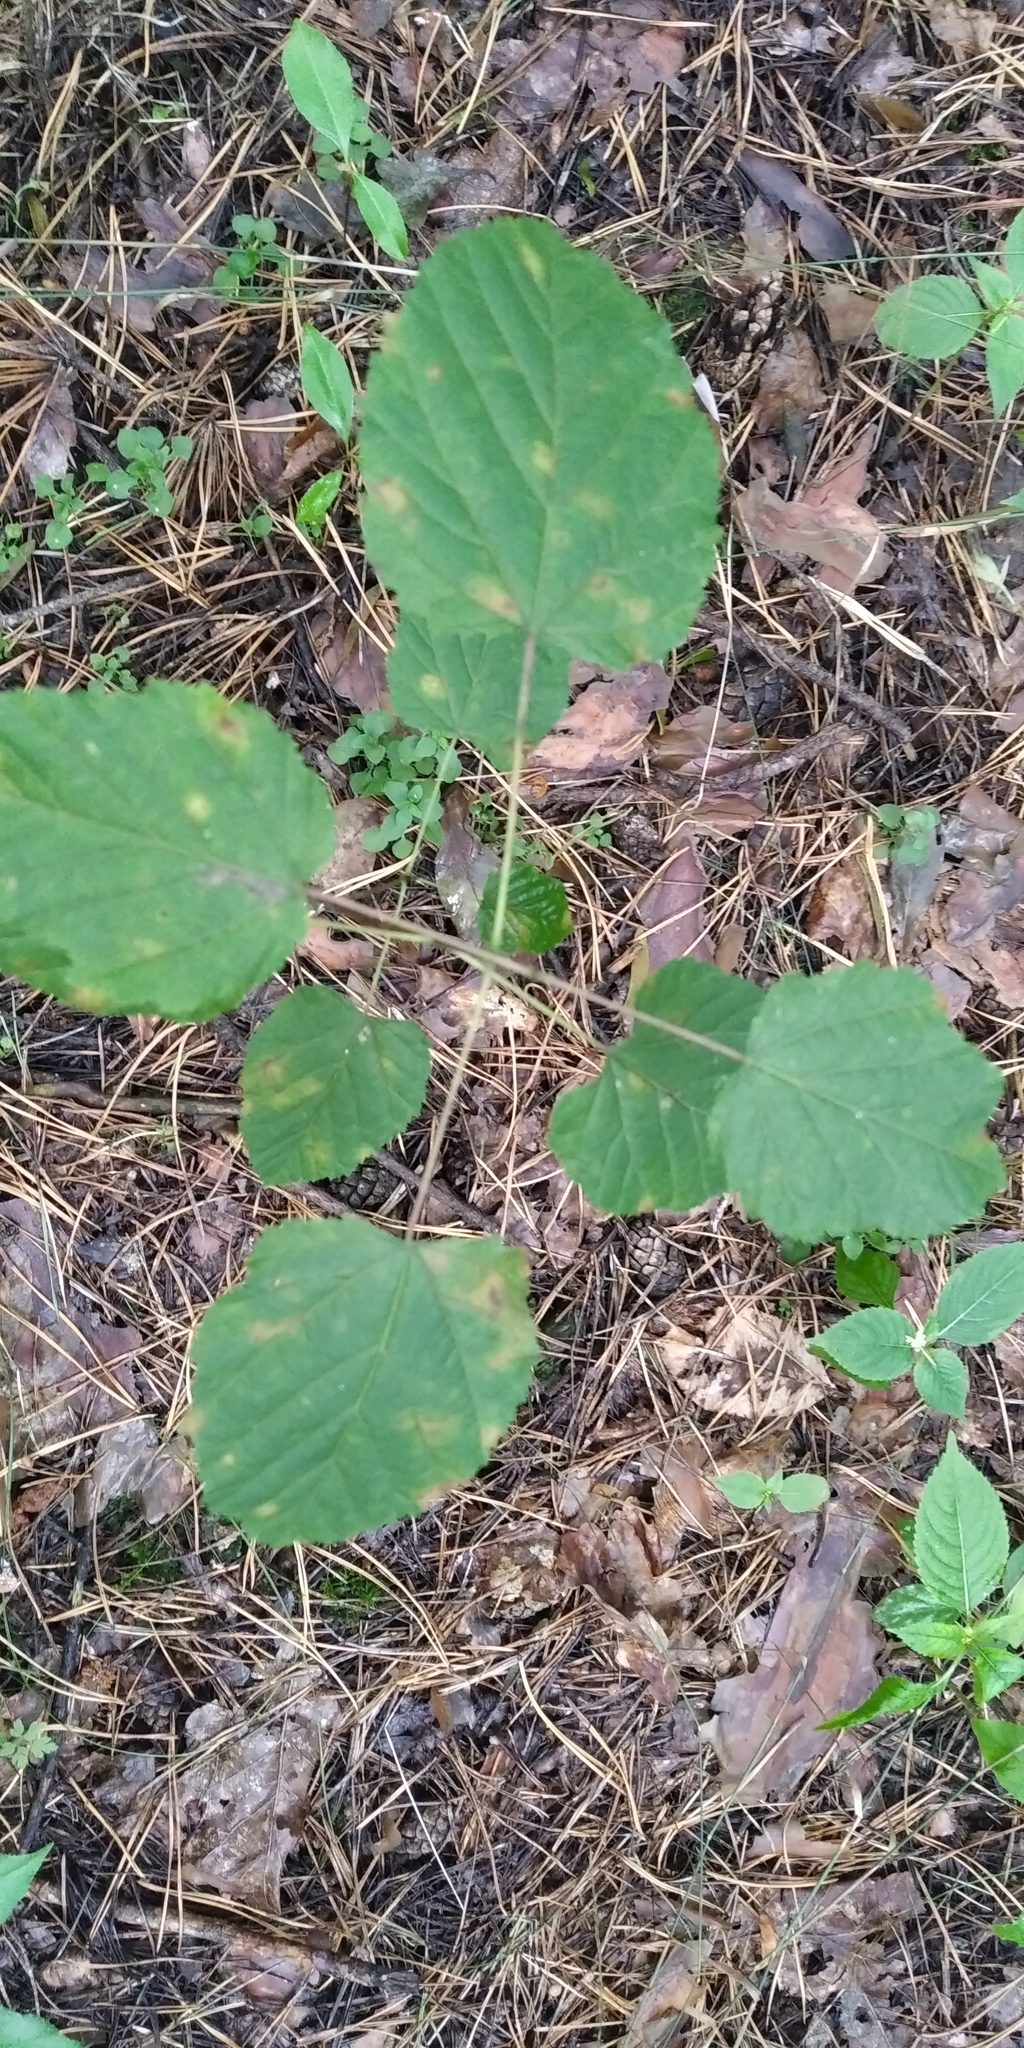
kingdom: Plantae
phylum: Tracheophyta
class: Magnoliopsida
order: Sapindales
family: Sapindaceae
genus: Acer
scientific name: Acer tataricum
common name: Tartar maple
